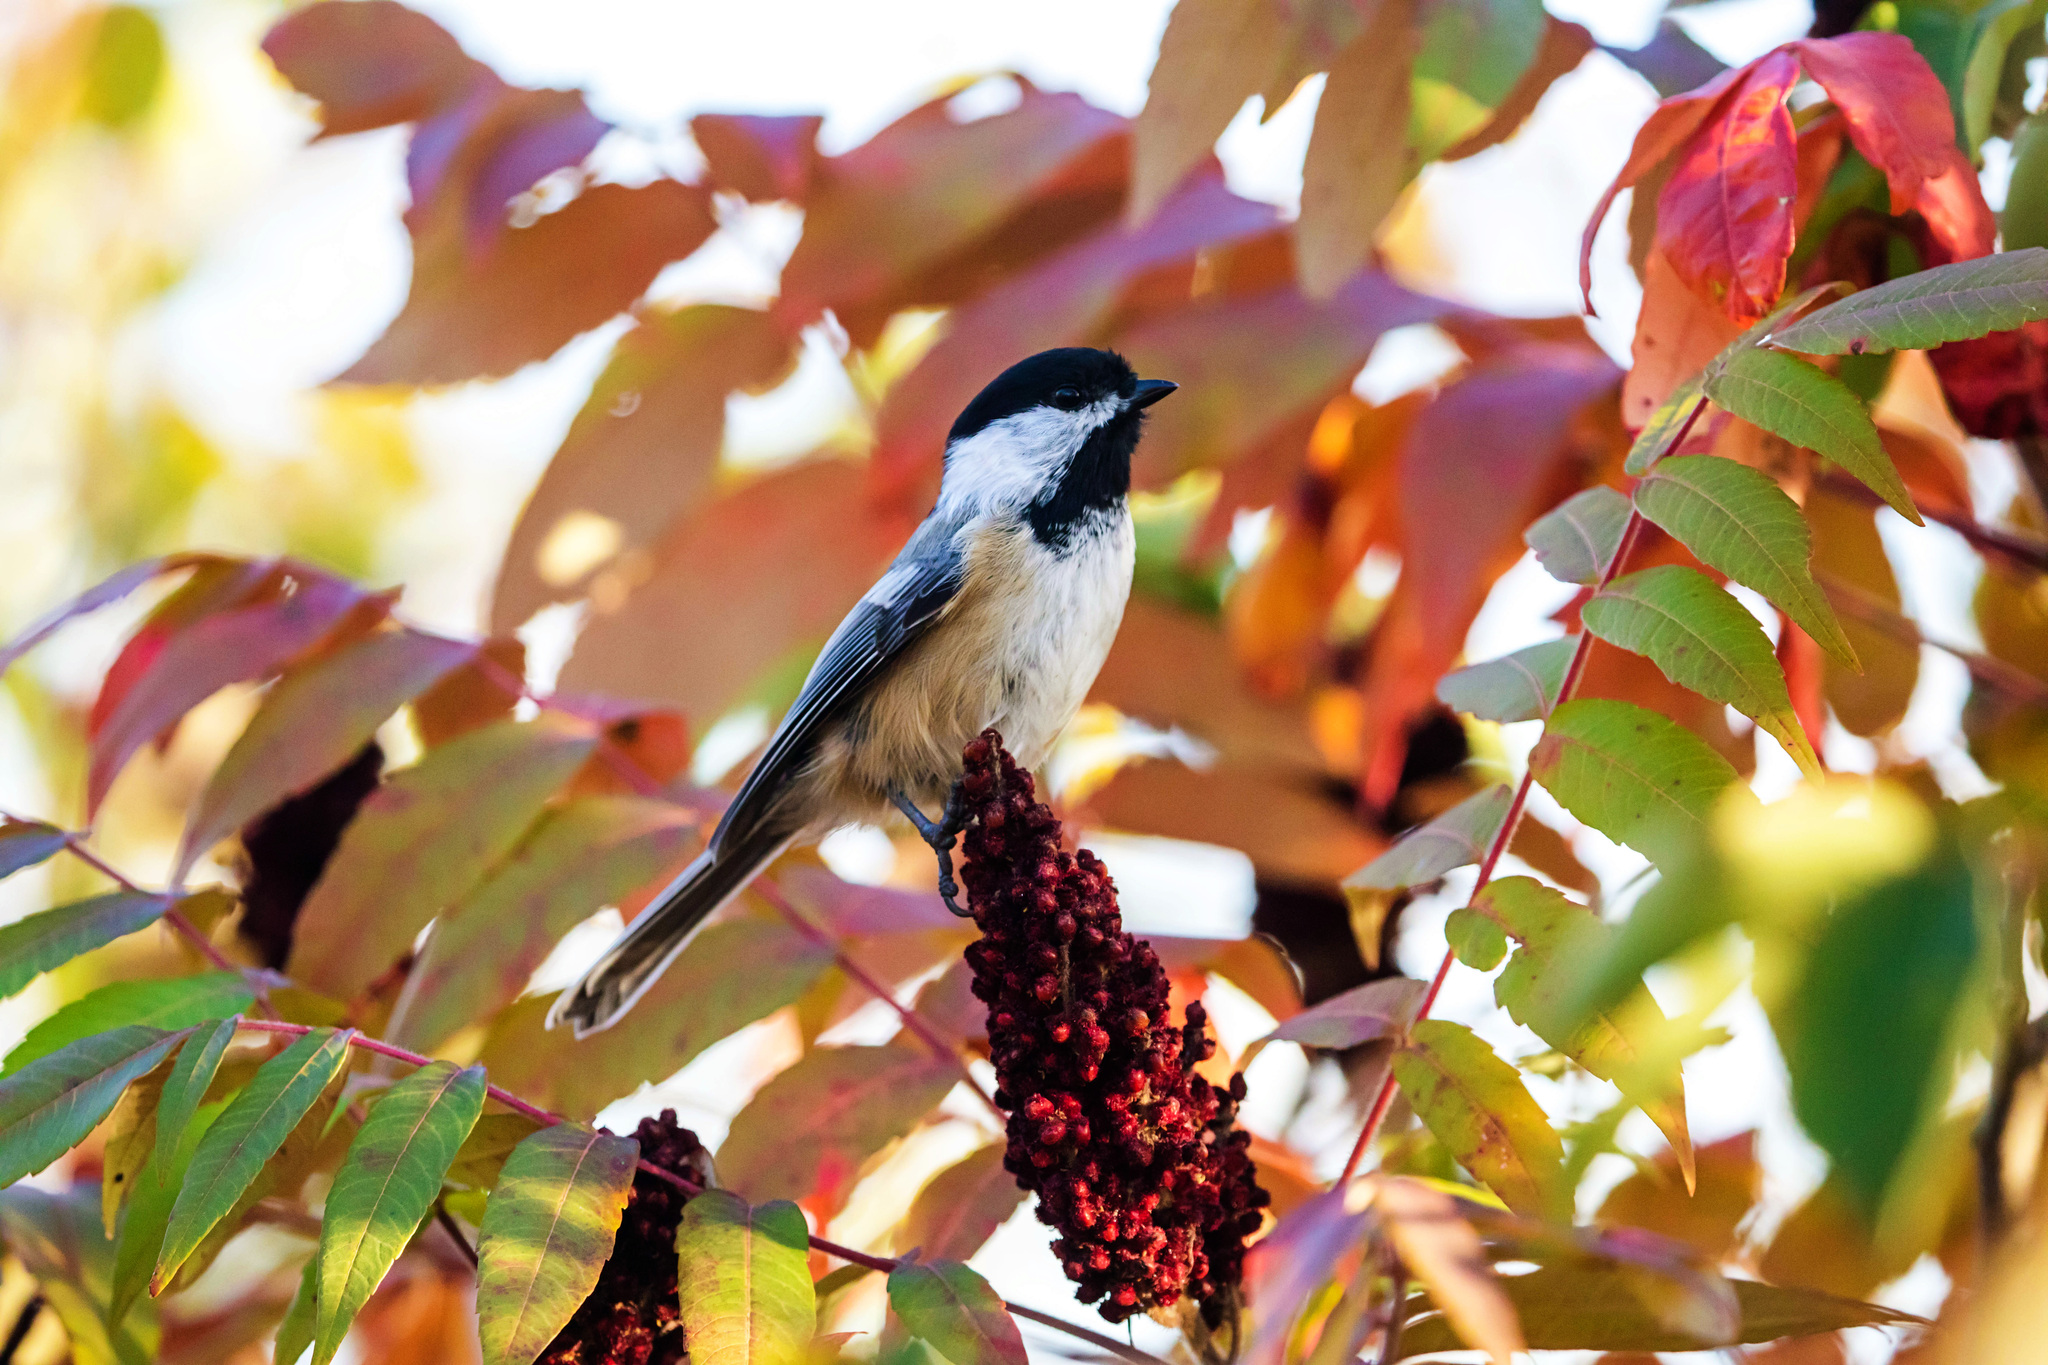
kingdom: Animalia
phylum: Chordata
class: Aves
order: Passeriformes
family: Paridae
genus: Poecile
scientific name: Poecile atricapillus
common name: Black-capped chickadee
